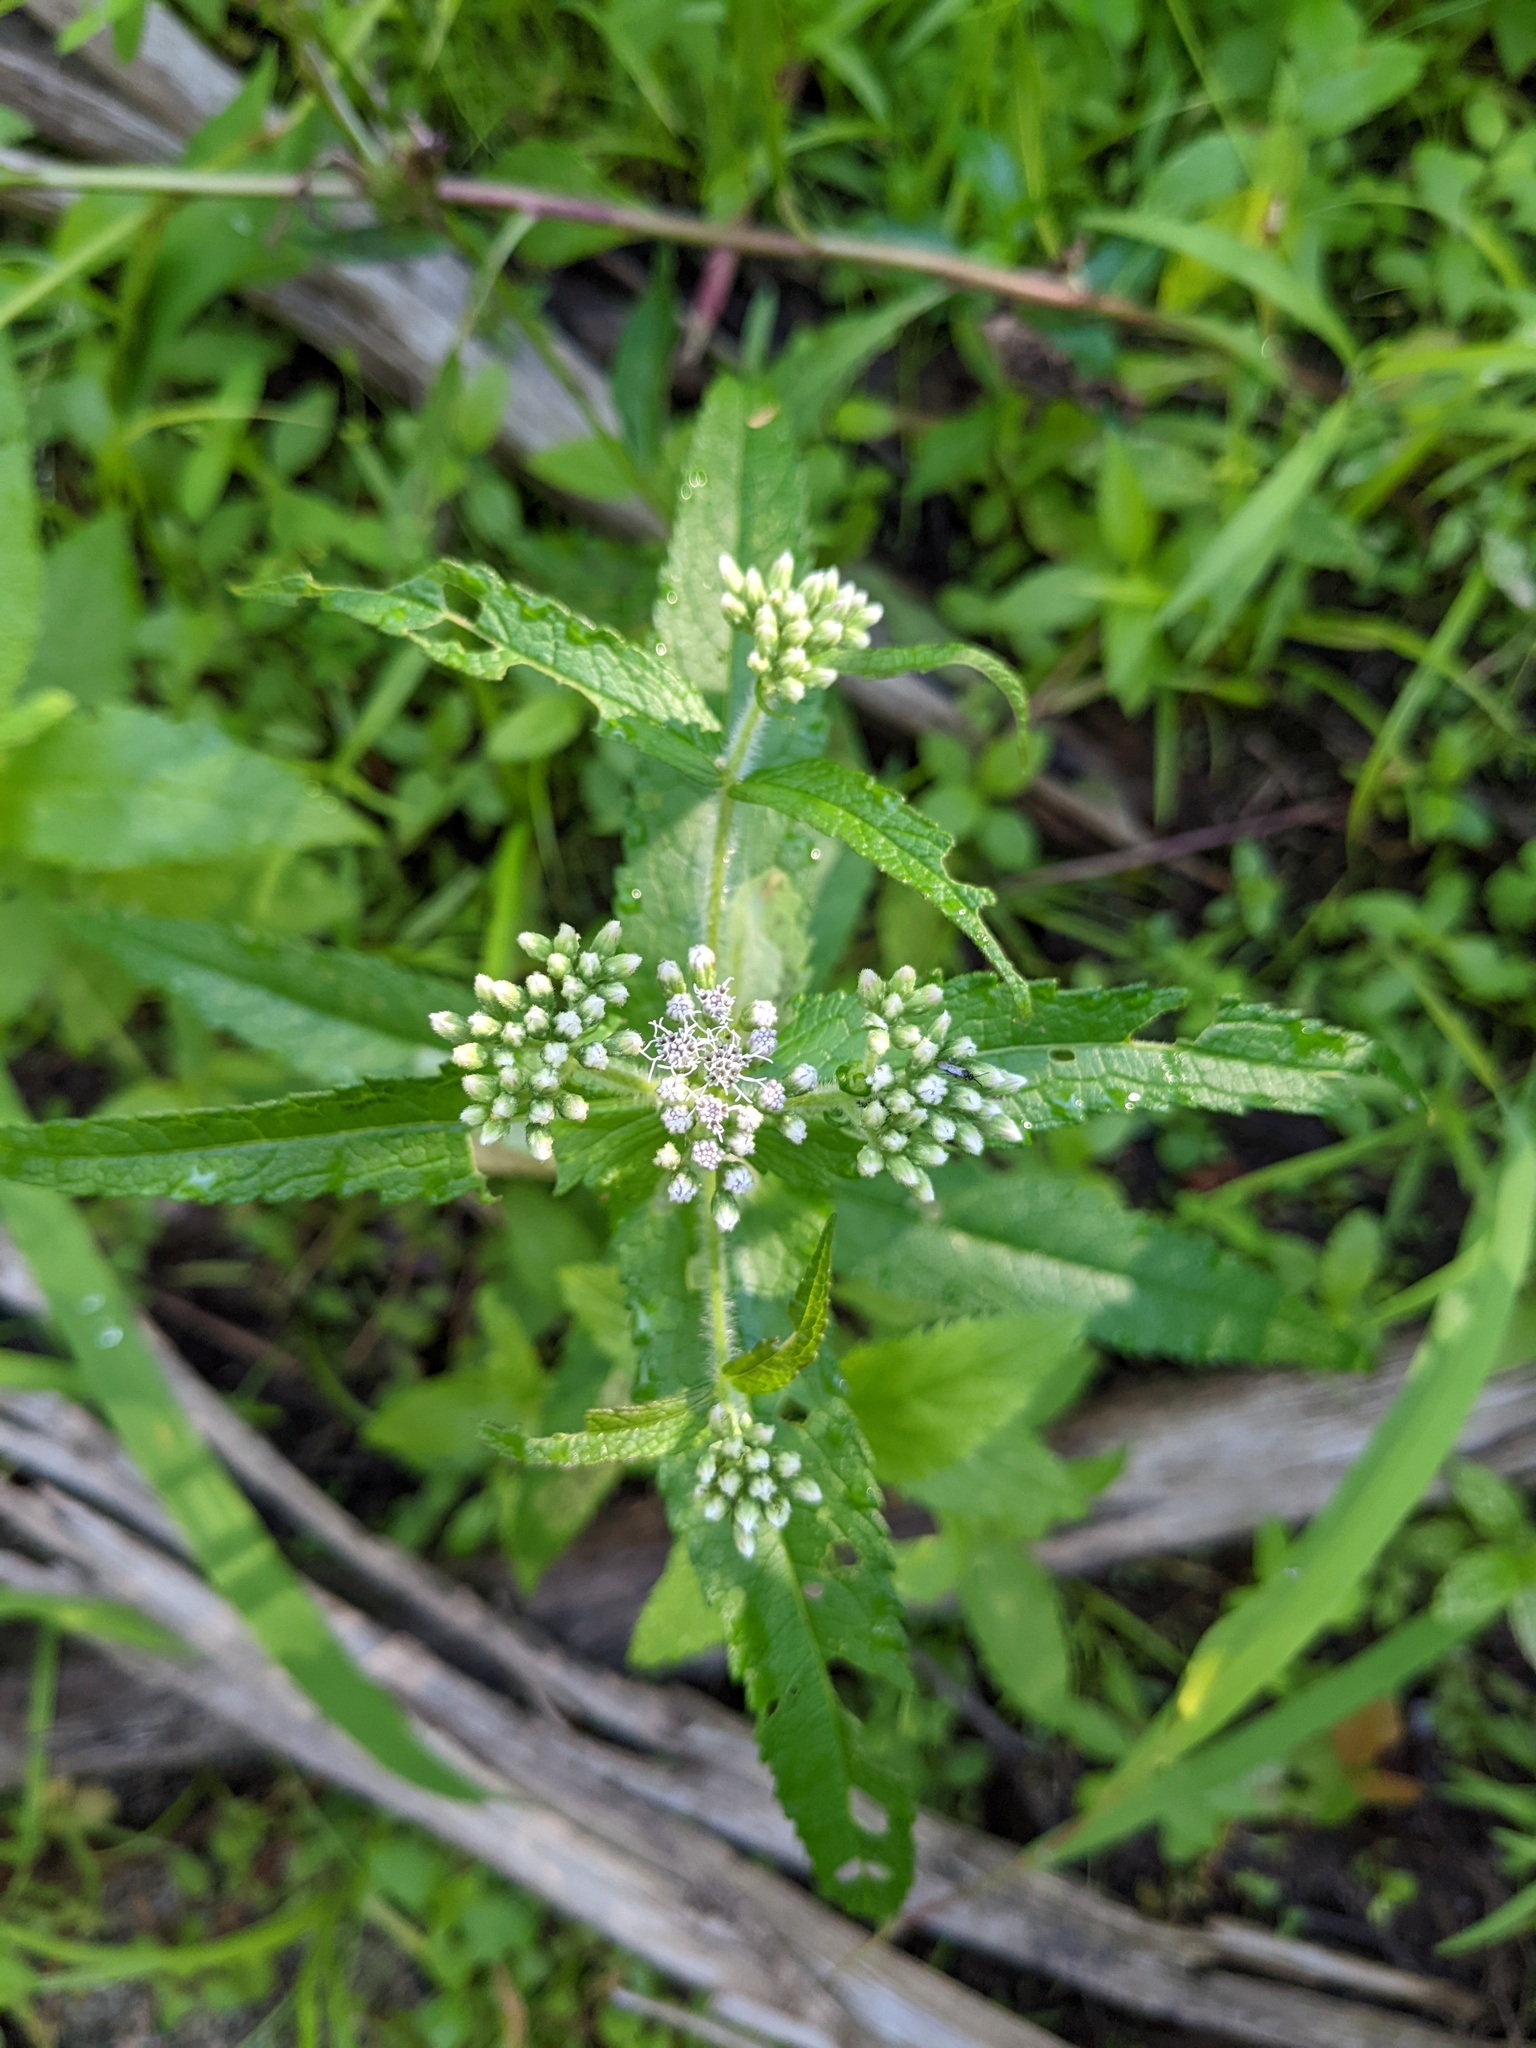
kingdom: Plantae
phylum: Tracheophyta
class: Magnoliopsida
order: Asterales
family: Asteraceae
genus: Eupatorium
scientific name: Eupatorium perfoliatum
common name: Boneset
